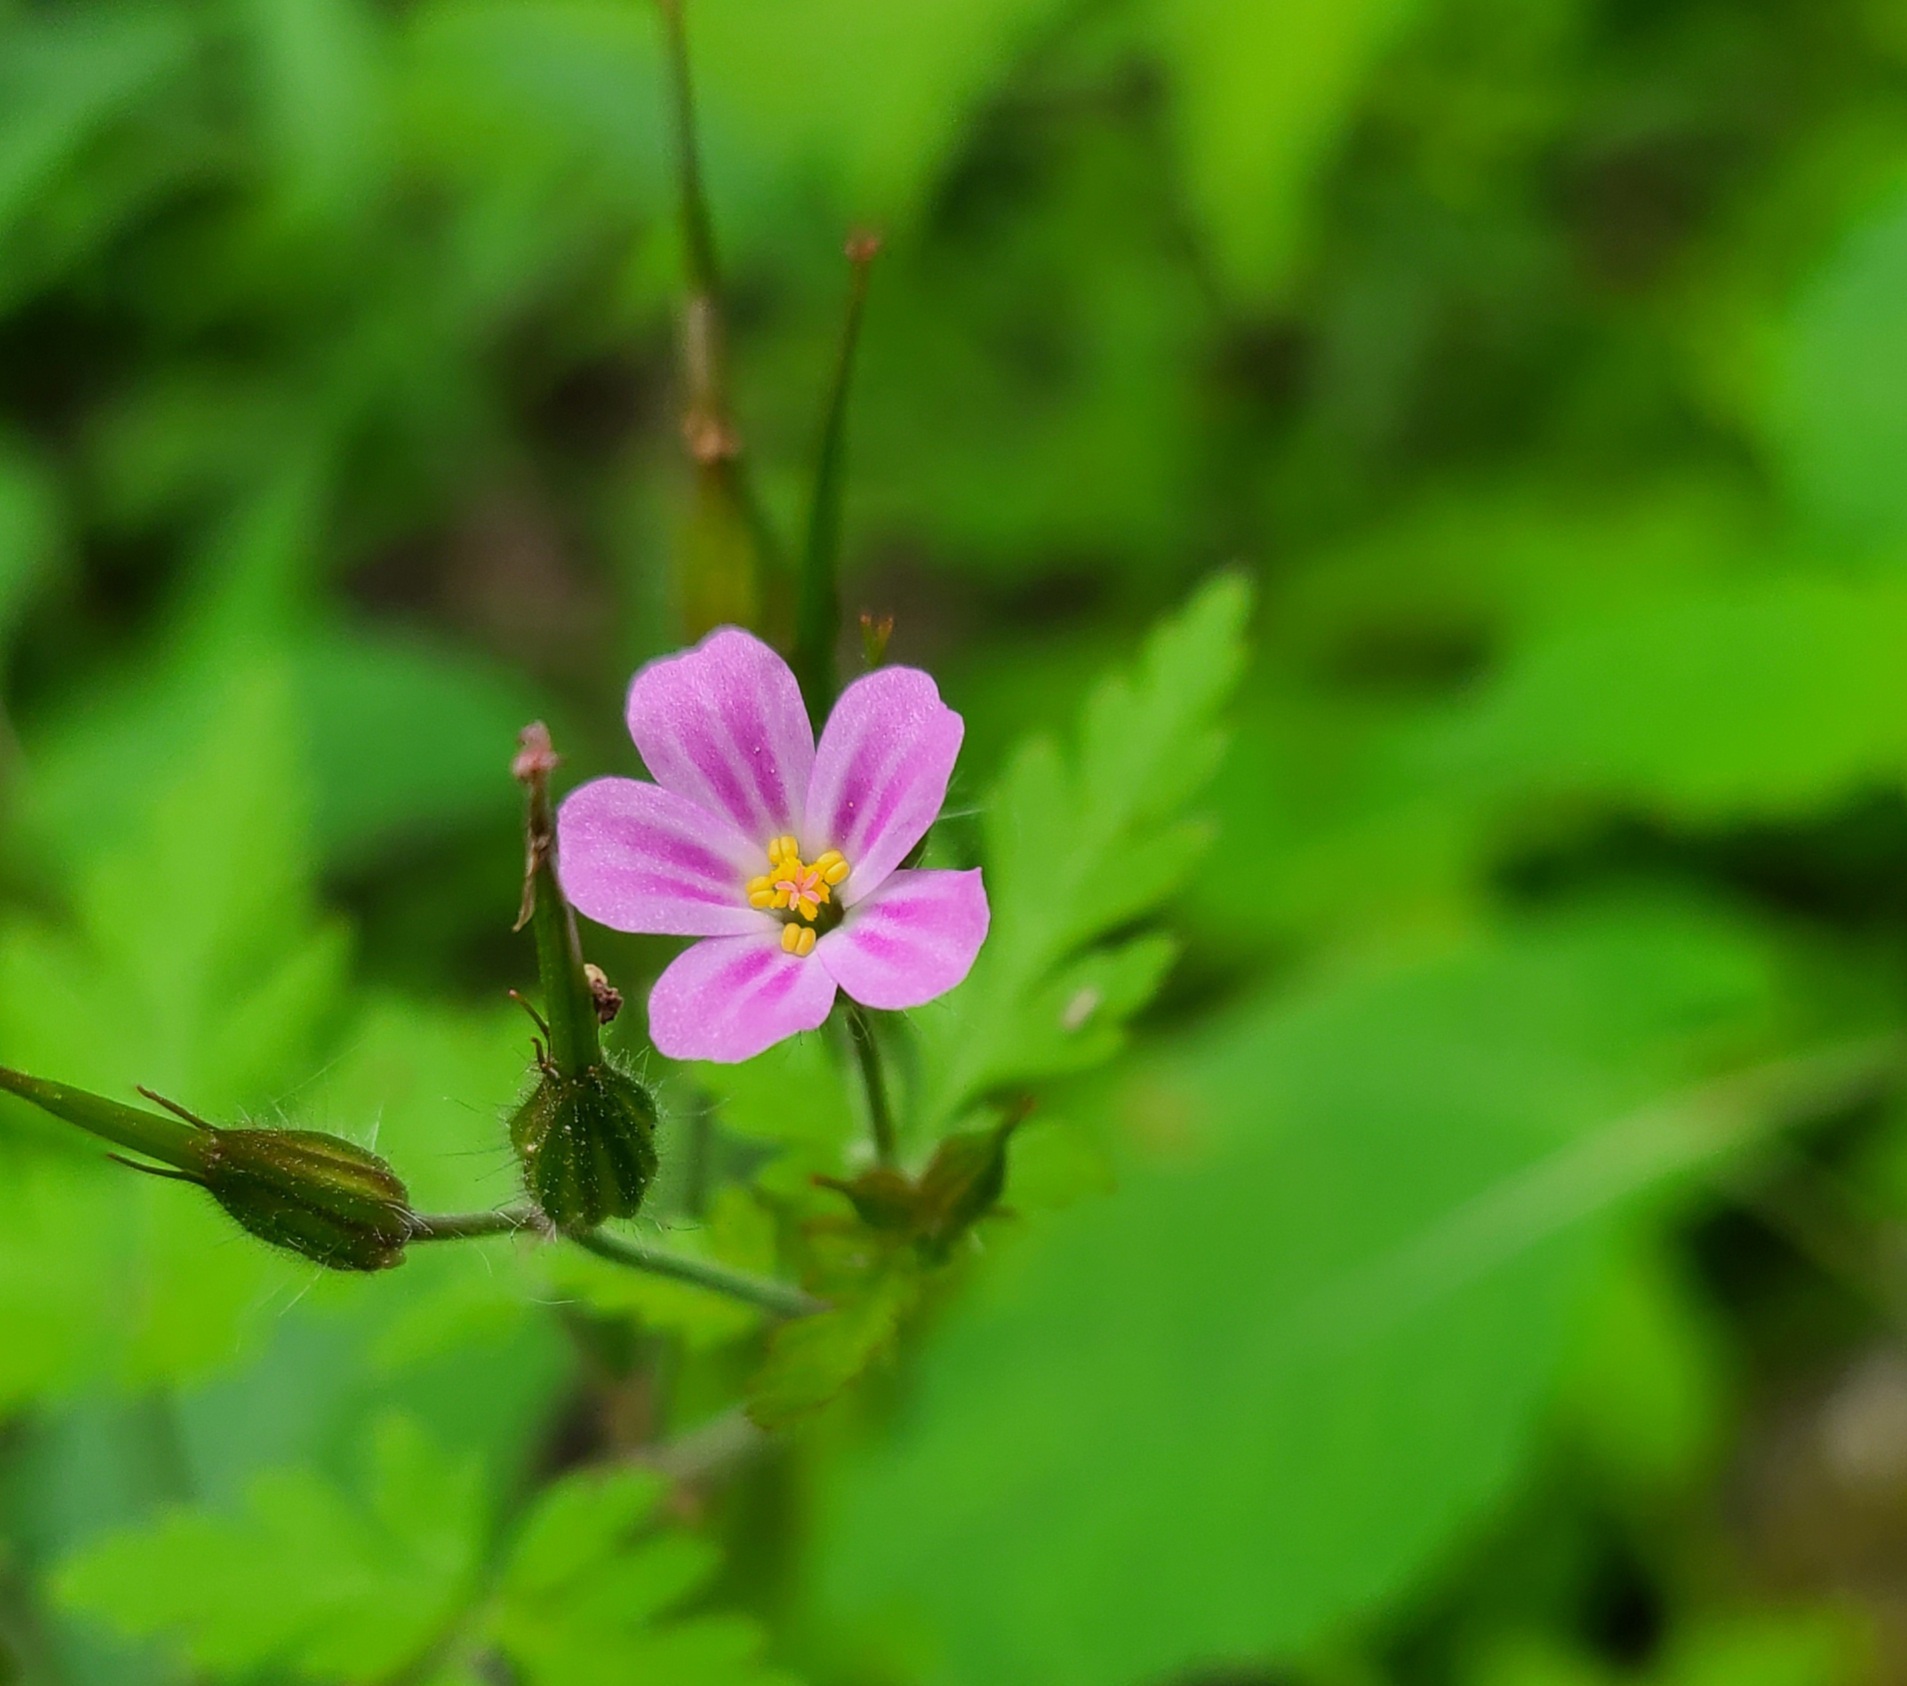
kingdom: Plantae
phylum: Tracheophyta
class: Magnoliopsida
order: Geraniales
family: Geraniaceae
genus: Geranium
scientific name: Geranium robertianum
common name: Herb-robert
